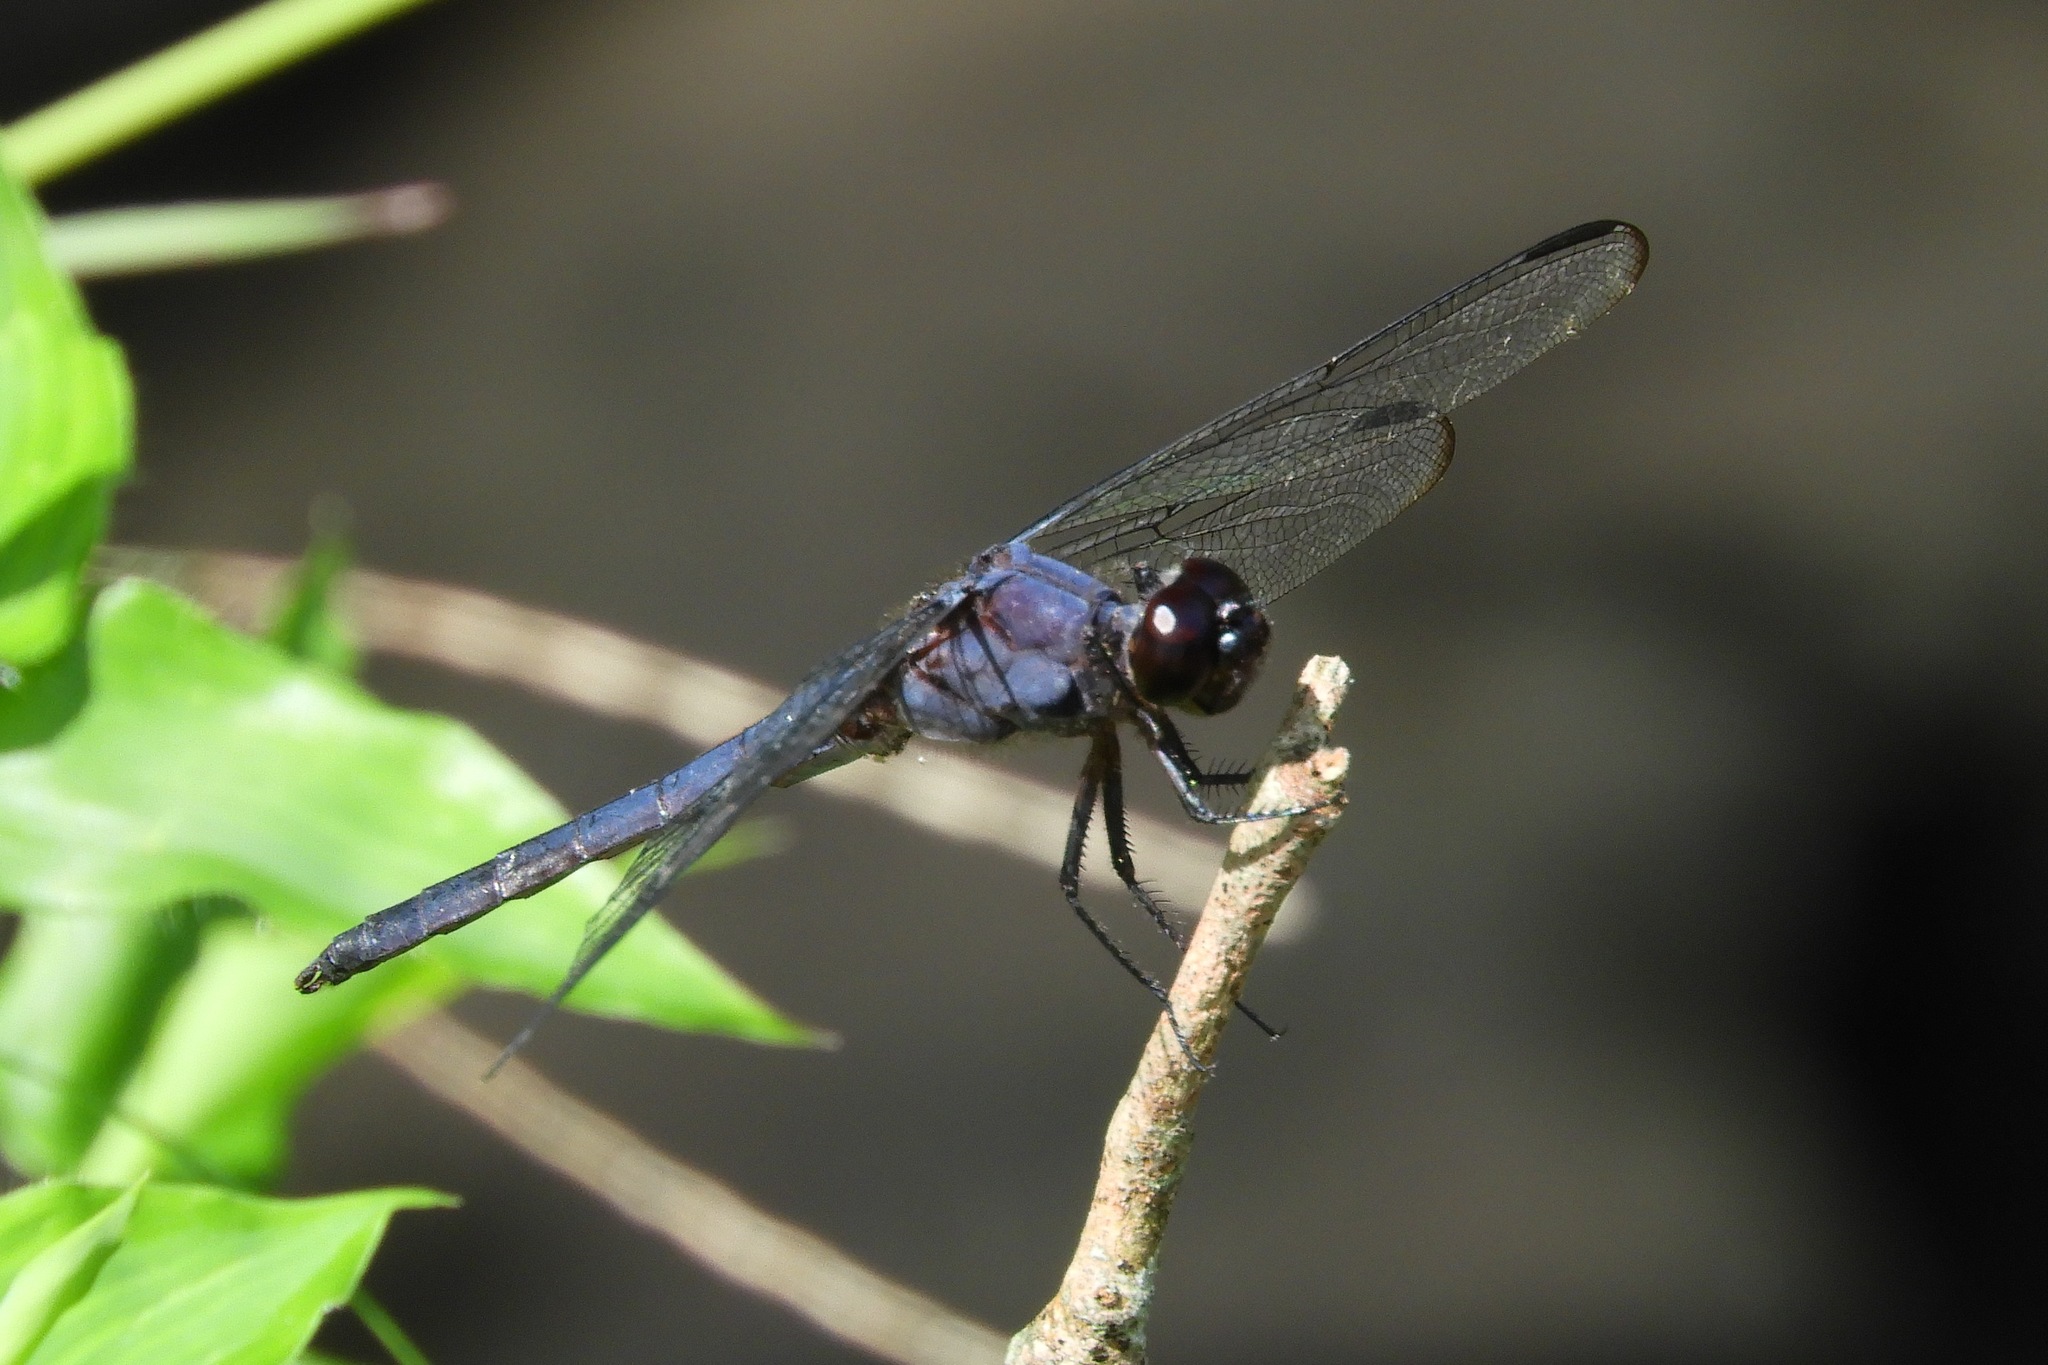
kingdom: Animalia
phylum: Arthropoda
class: Insecta
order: Odonata
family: Libellulidae
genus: Libellula
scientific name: Libellula incesta
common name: Slaty skimmer
